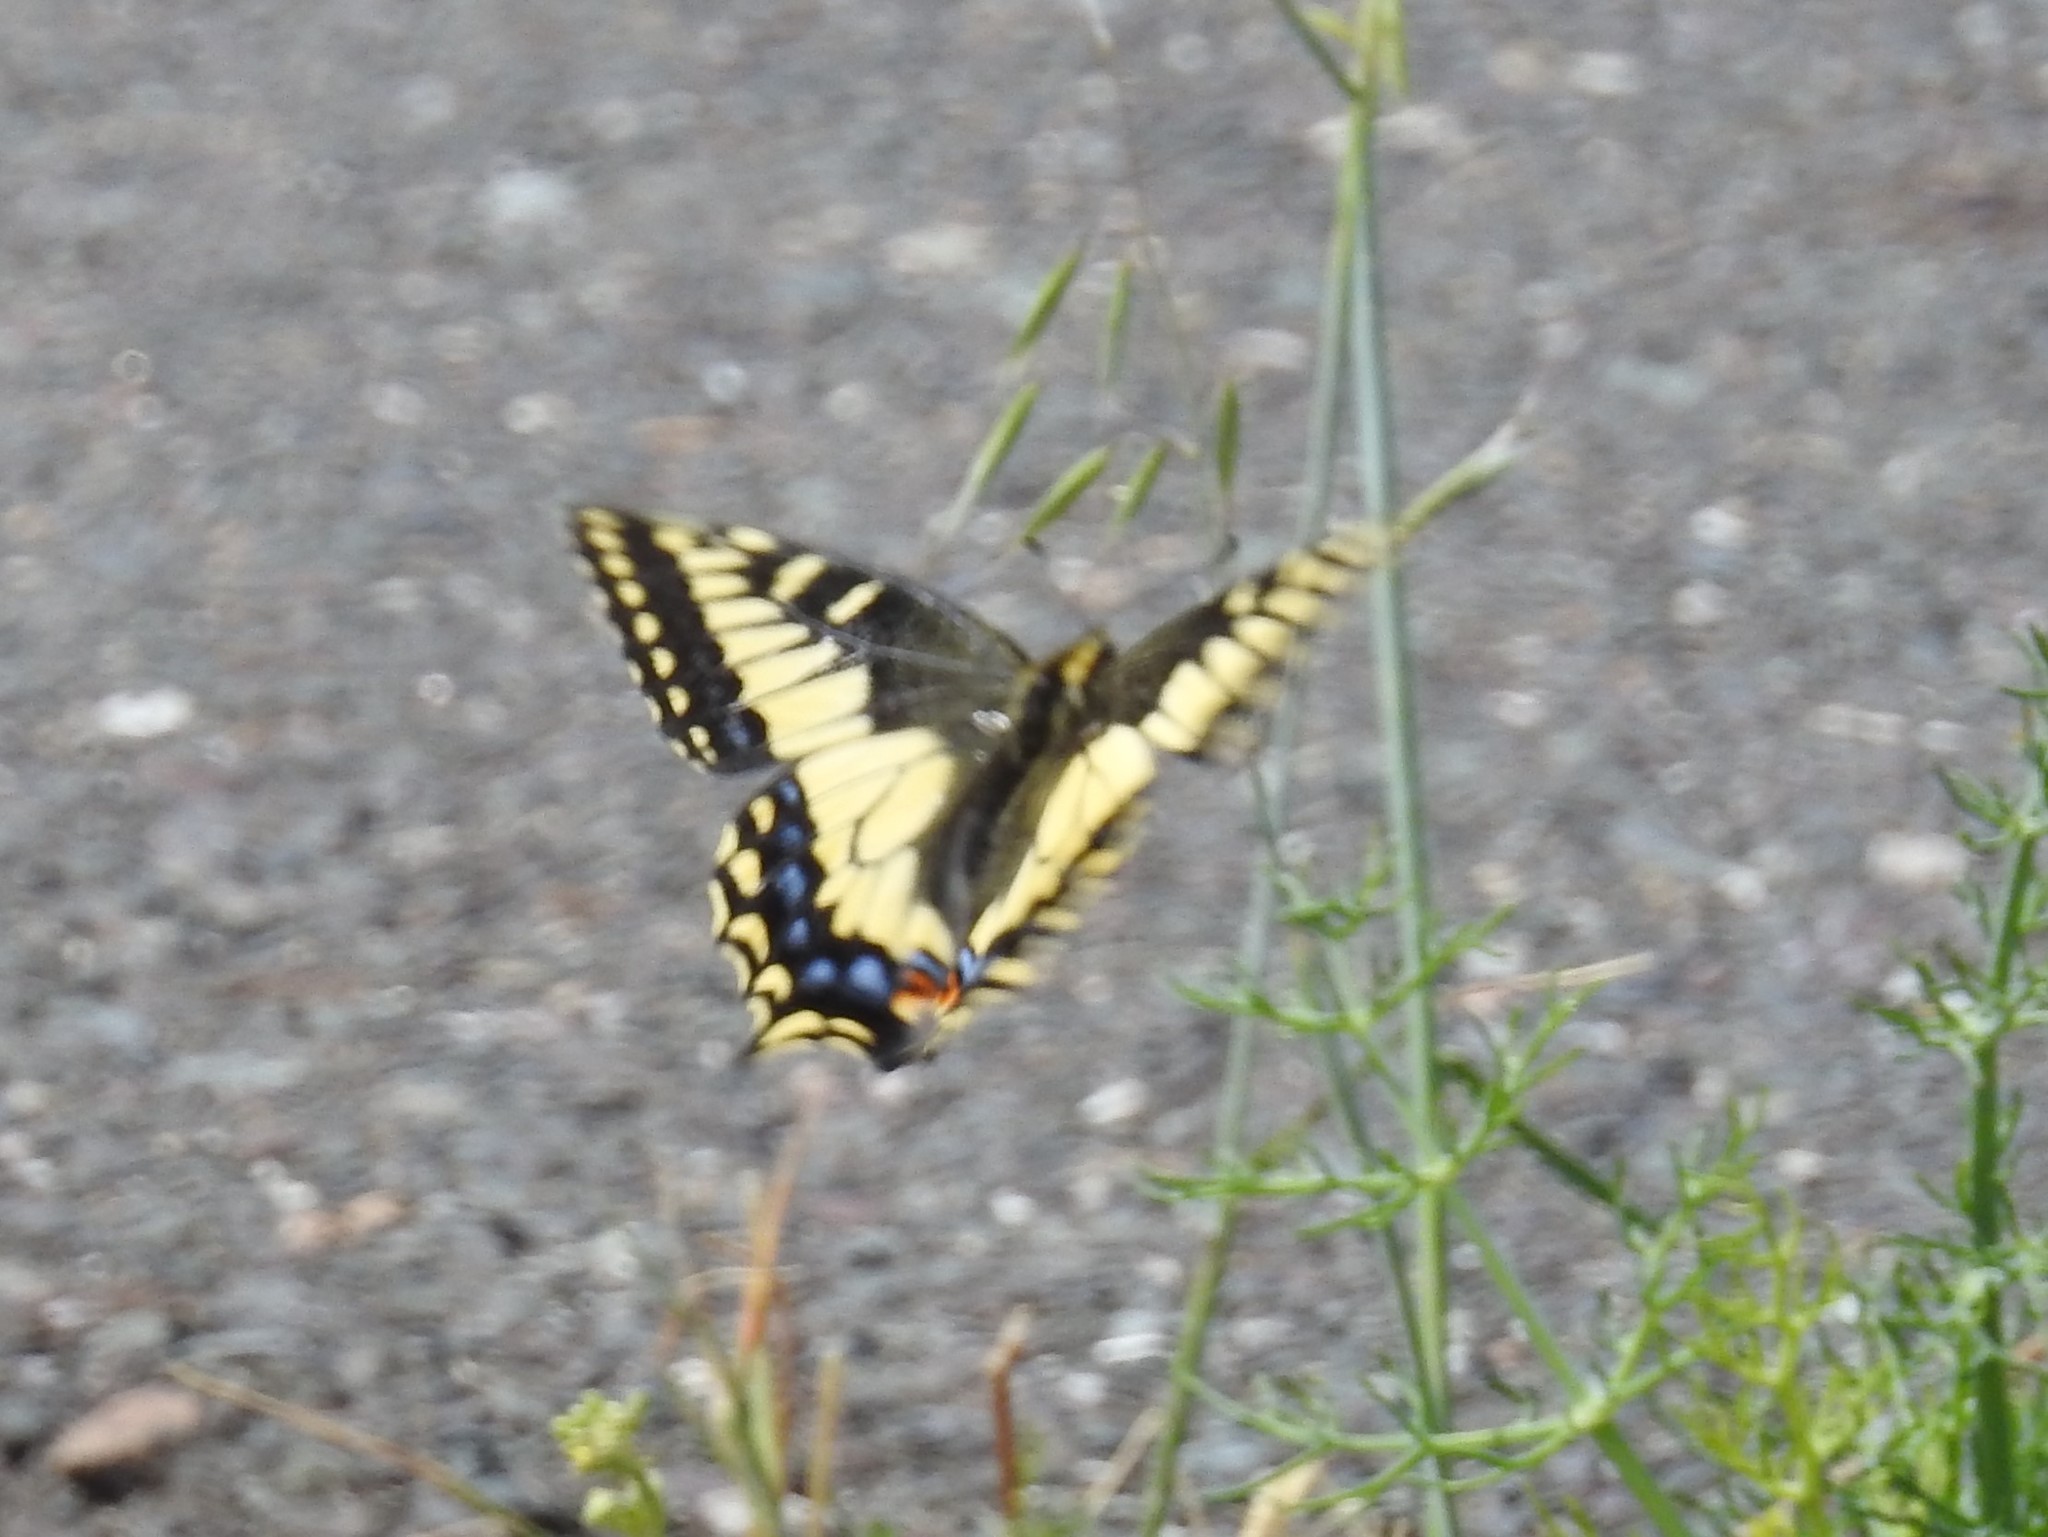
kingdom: Animalia
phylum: Arthropoda
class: Insecta
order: Lepidoptera
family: Papilionidae
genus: Papilio
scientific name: Papilio zelicaon
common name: Anise swallowtail
